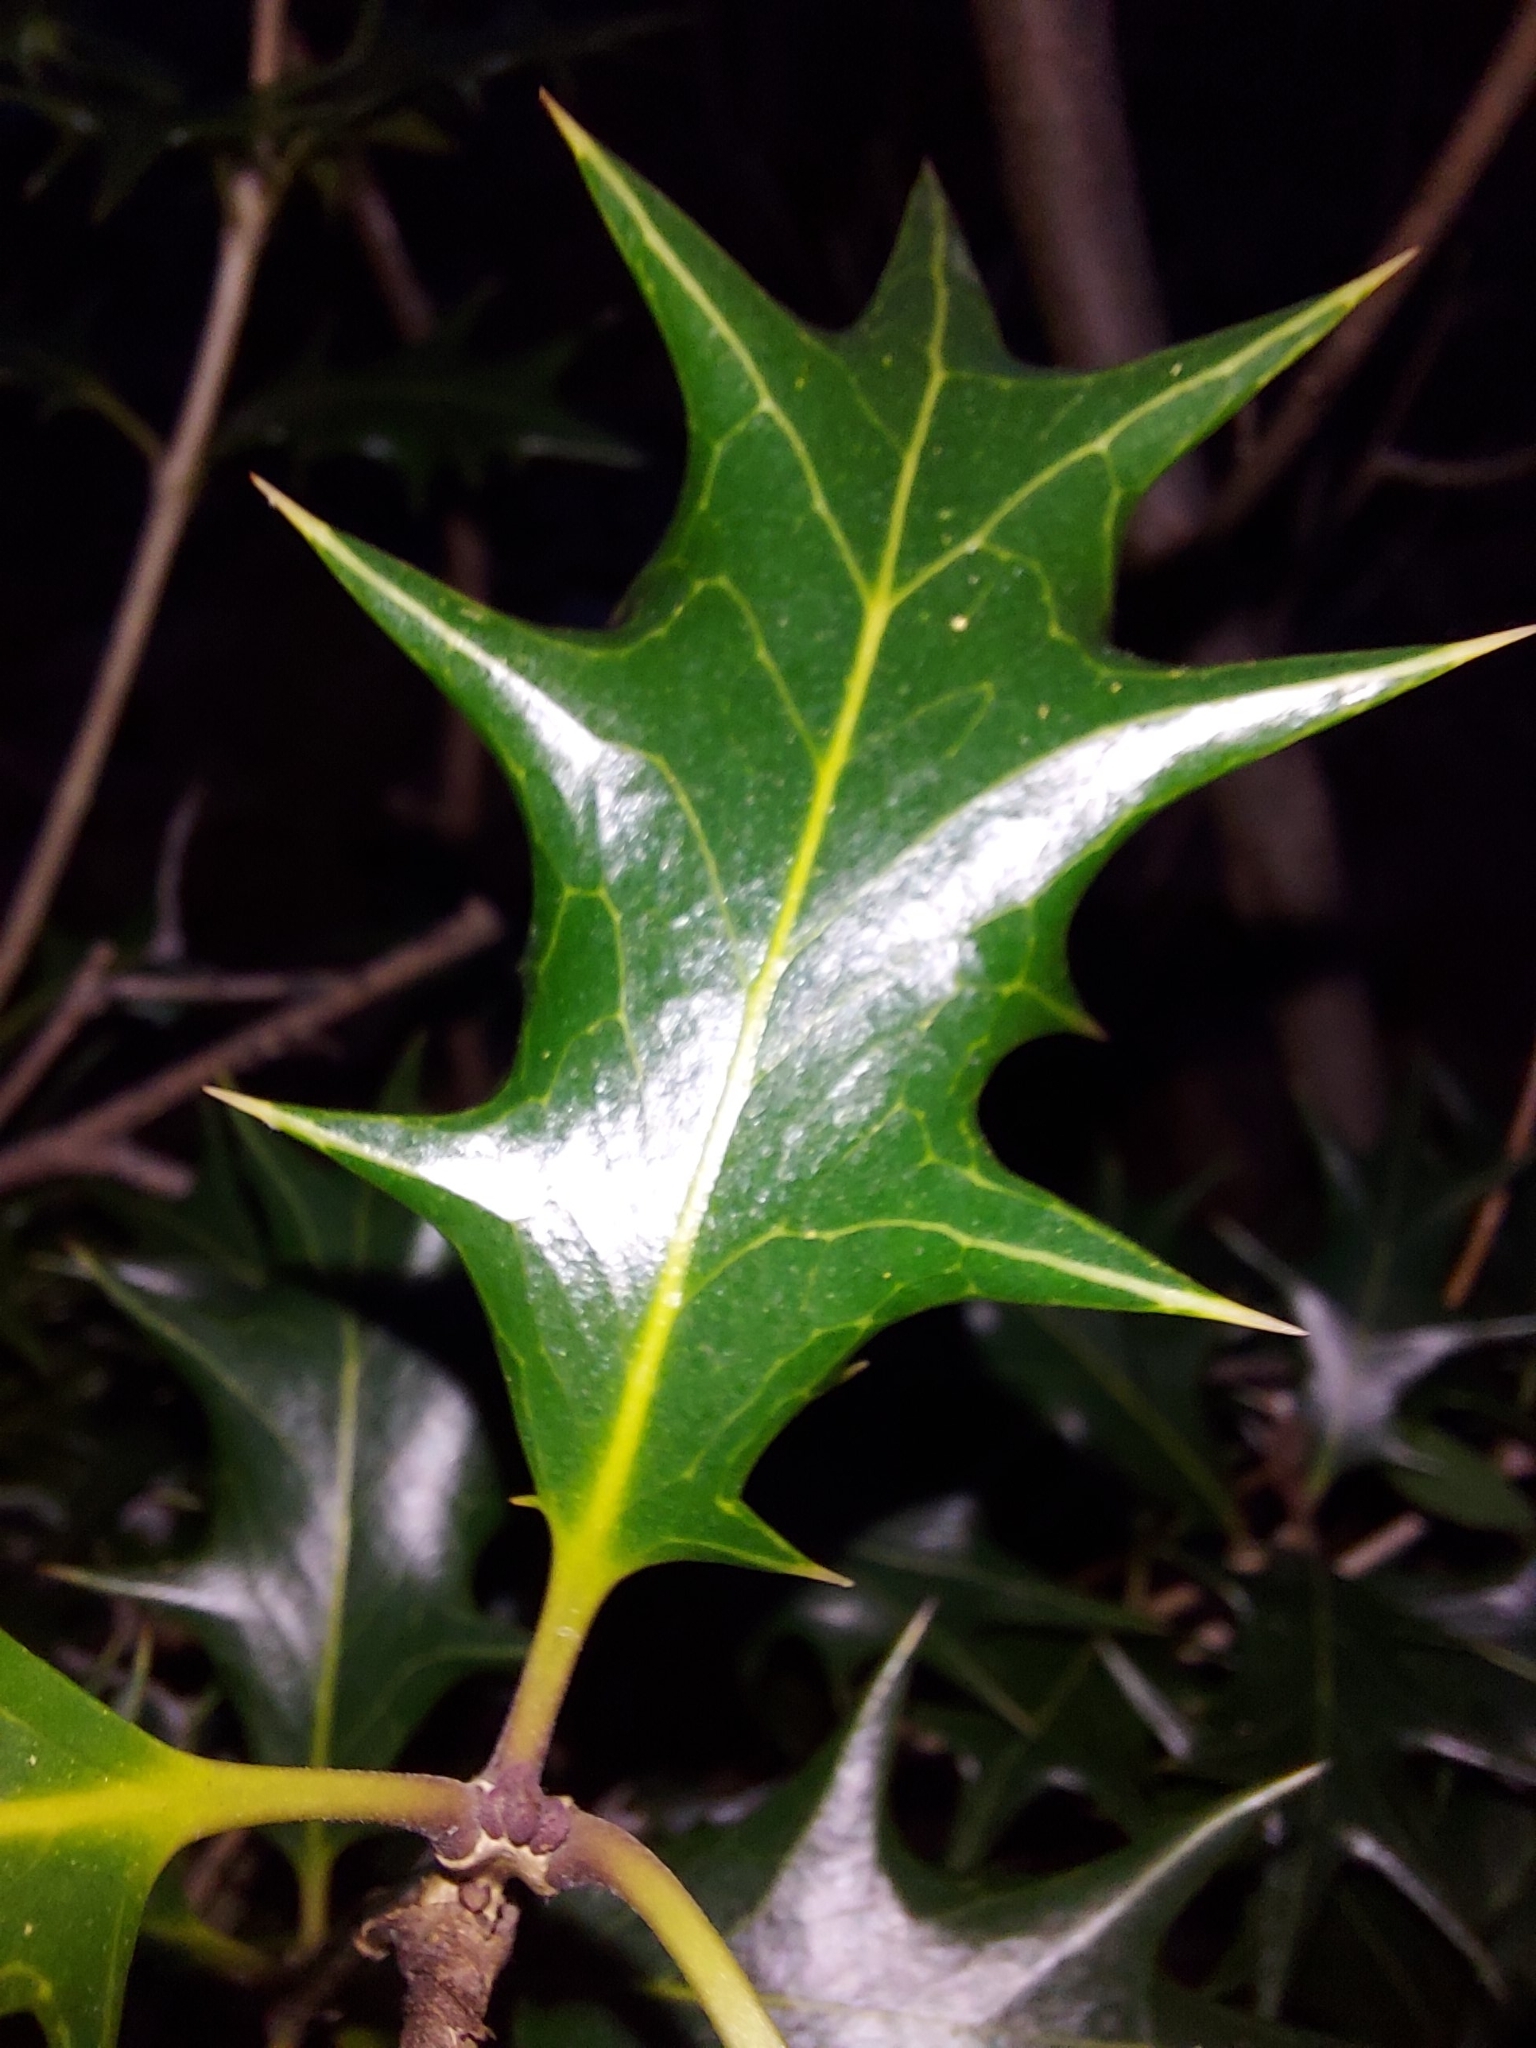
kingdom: Plantae
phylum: Tracheophyta
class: Magnoliopsida
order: Lamiales
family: Oleaceae
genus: Osmanthus
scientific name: Osmanthus heterophyllus
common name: Holly osmanthus
